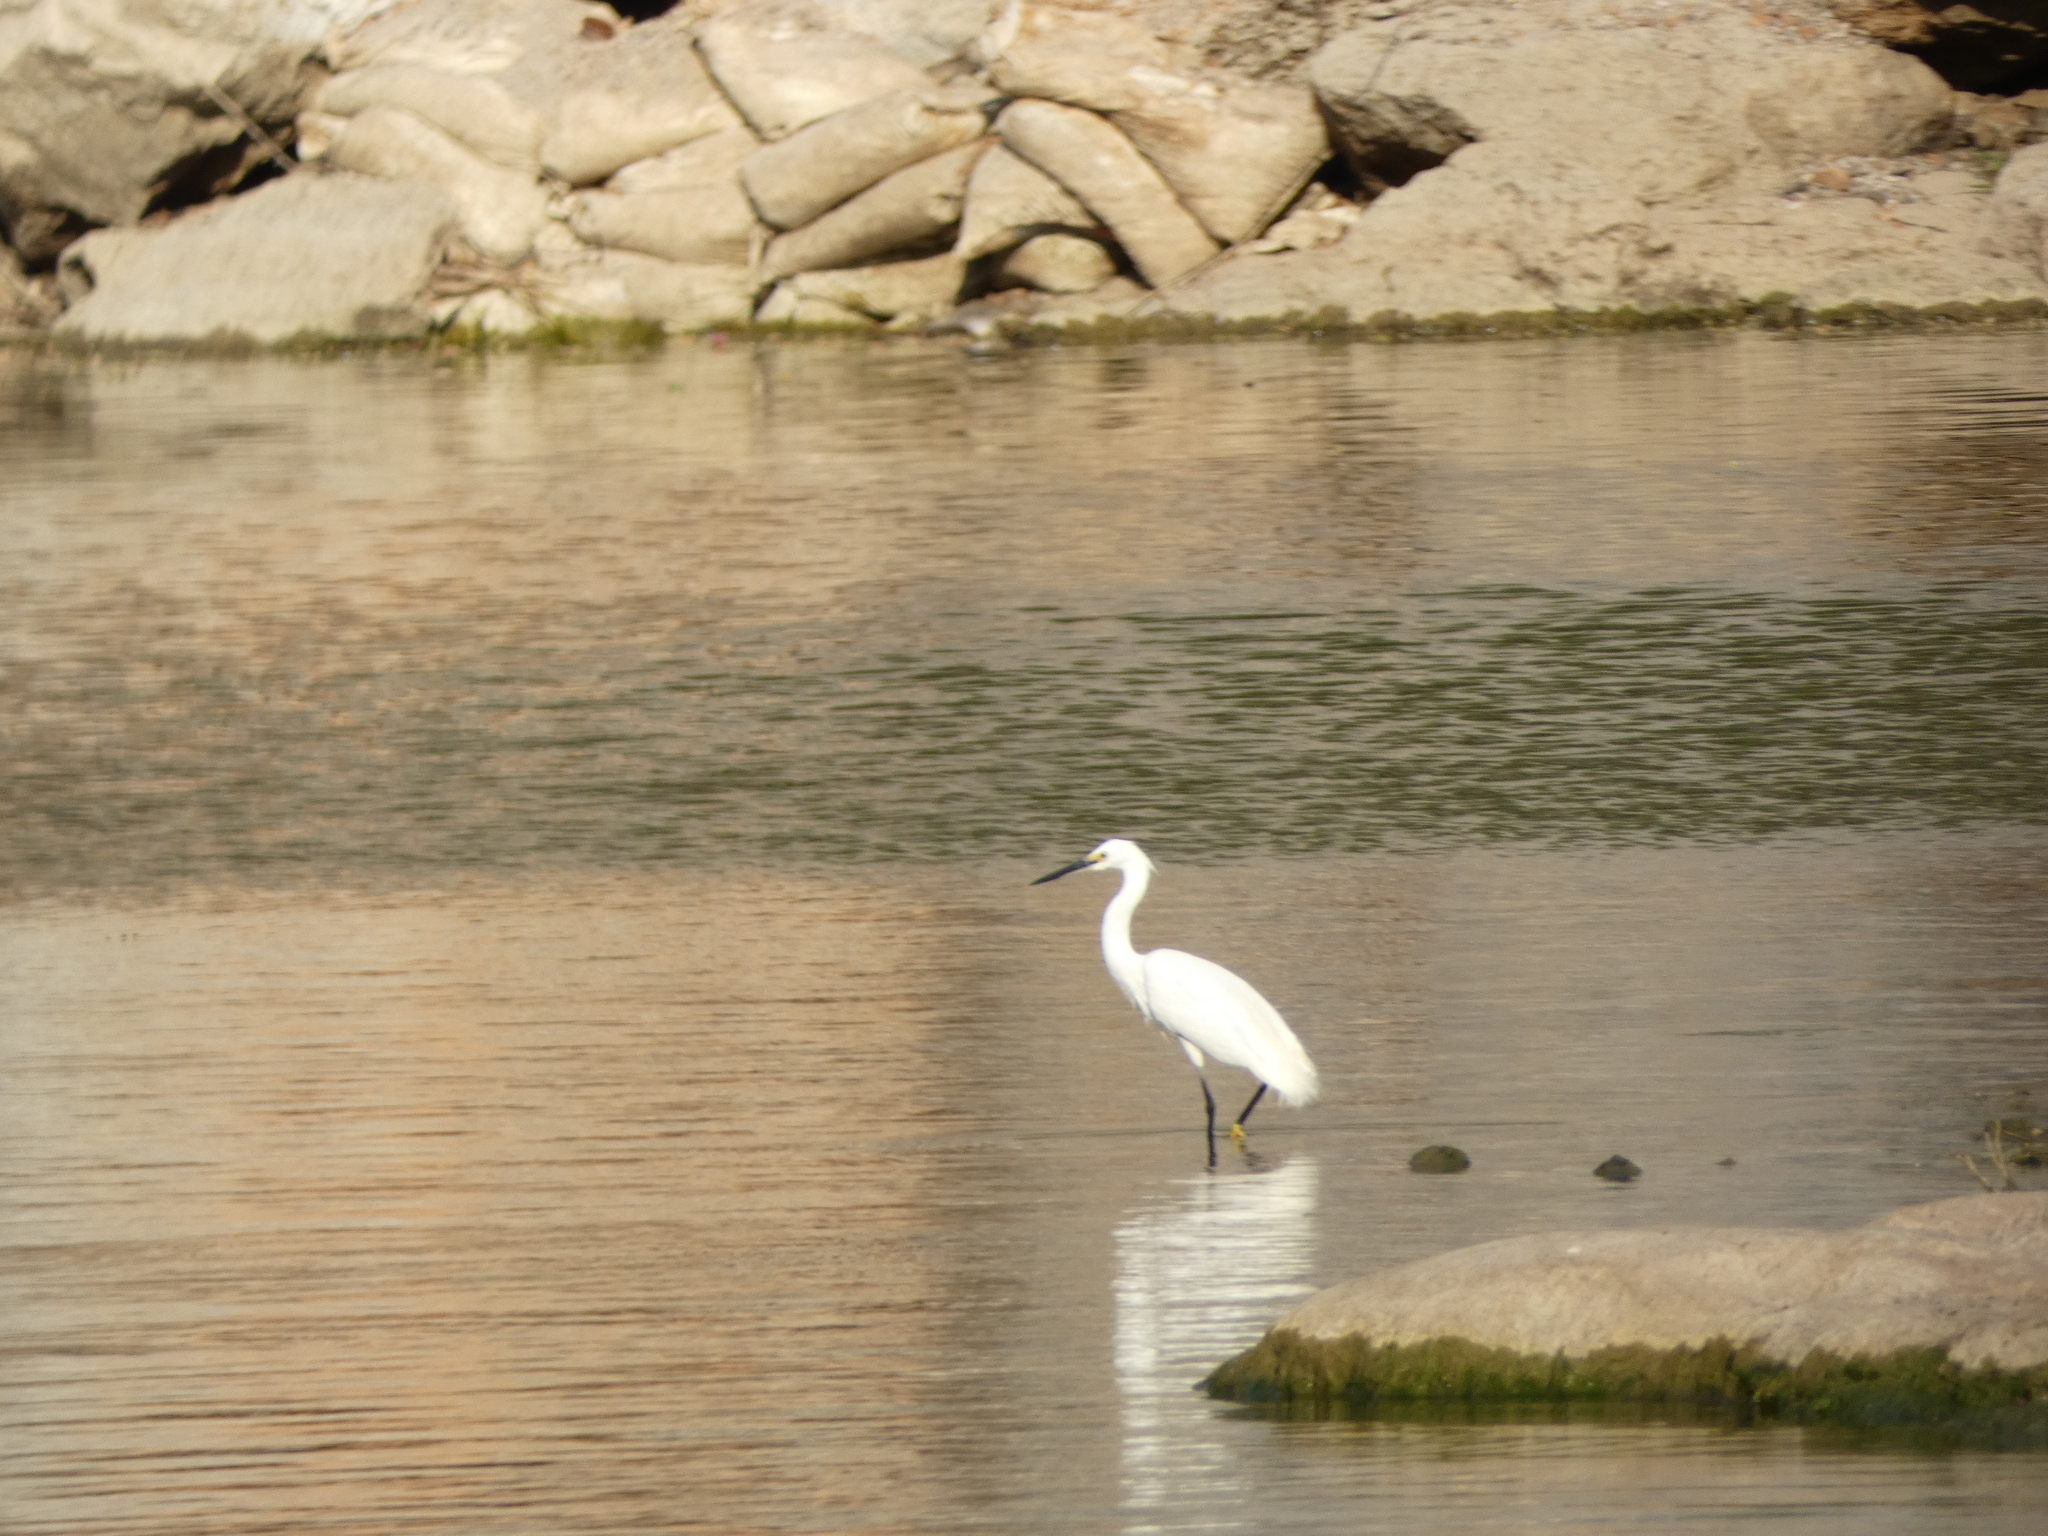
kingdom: Animalia
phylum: Chordata
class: Aves
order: Pelecaniformes
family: Ardeidae
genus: Egretta
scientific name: Egretta garzetta
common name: Little egret
